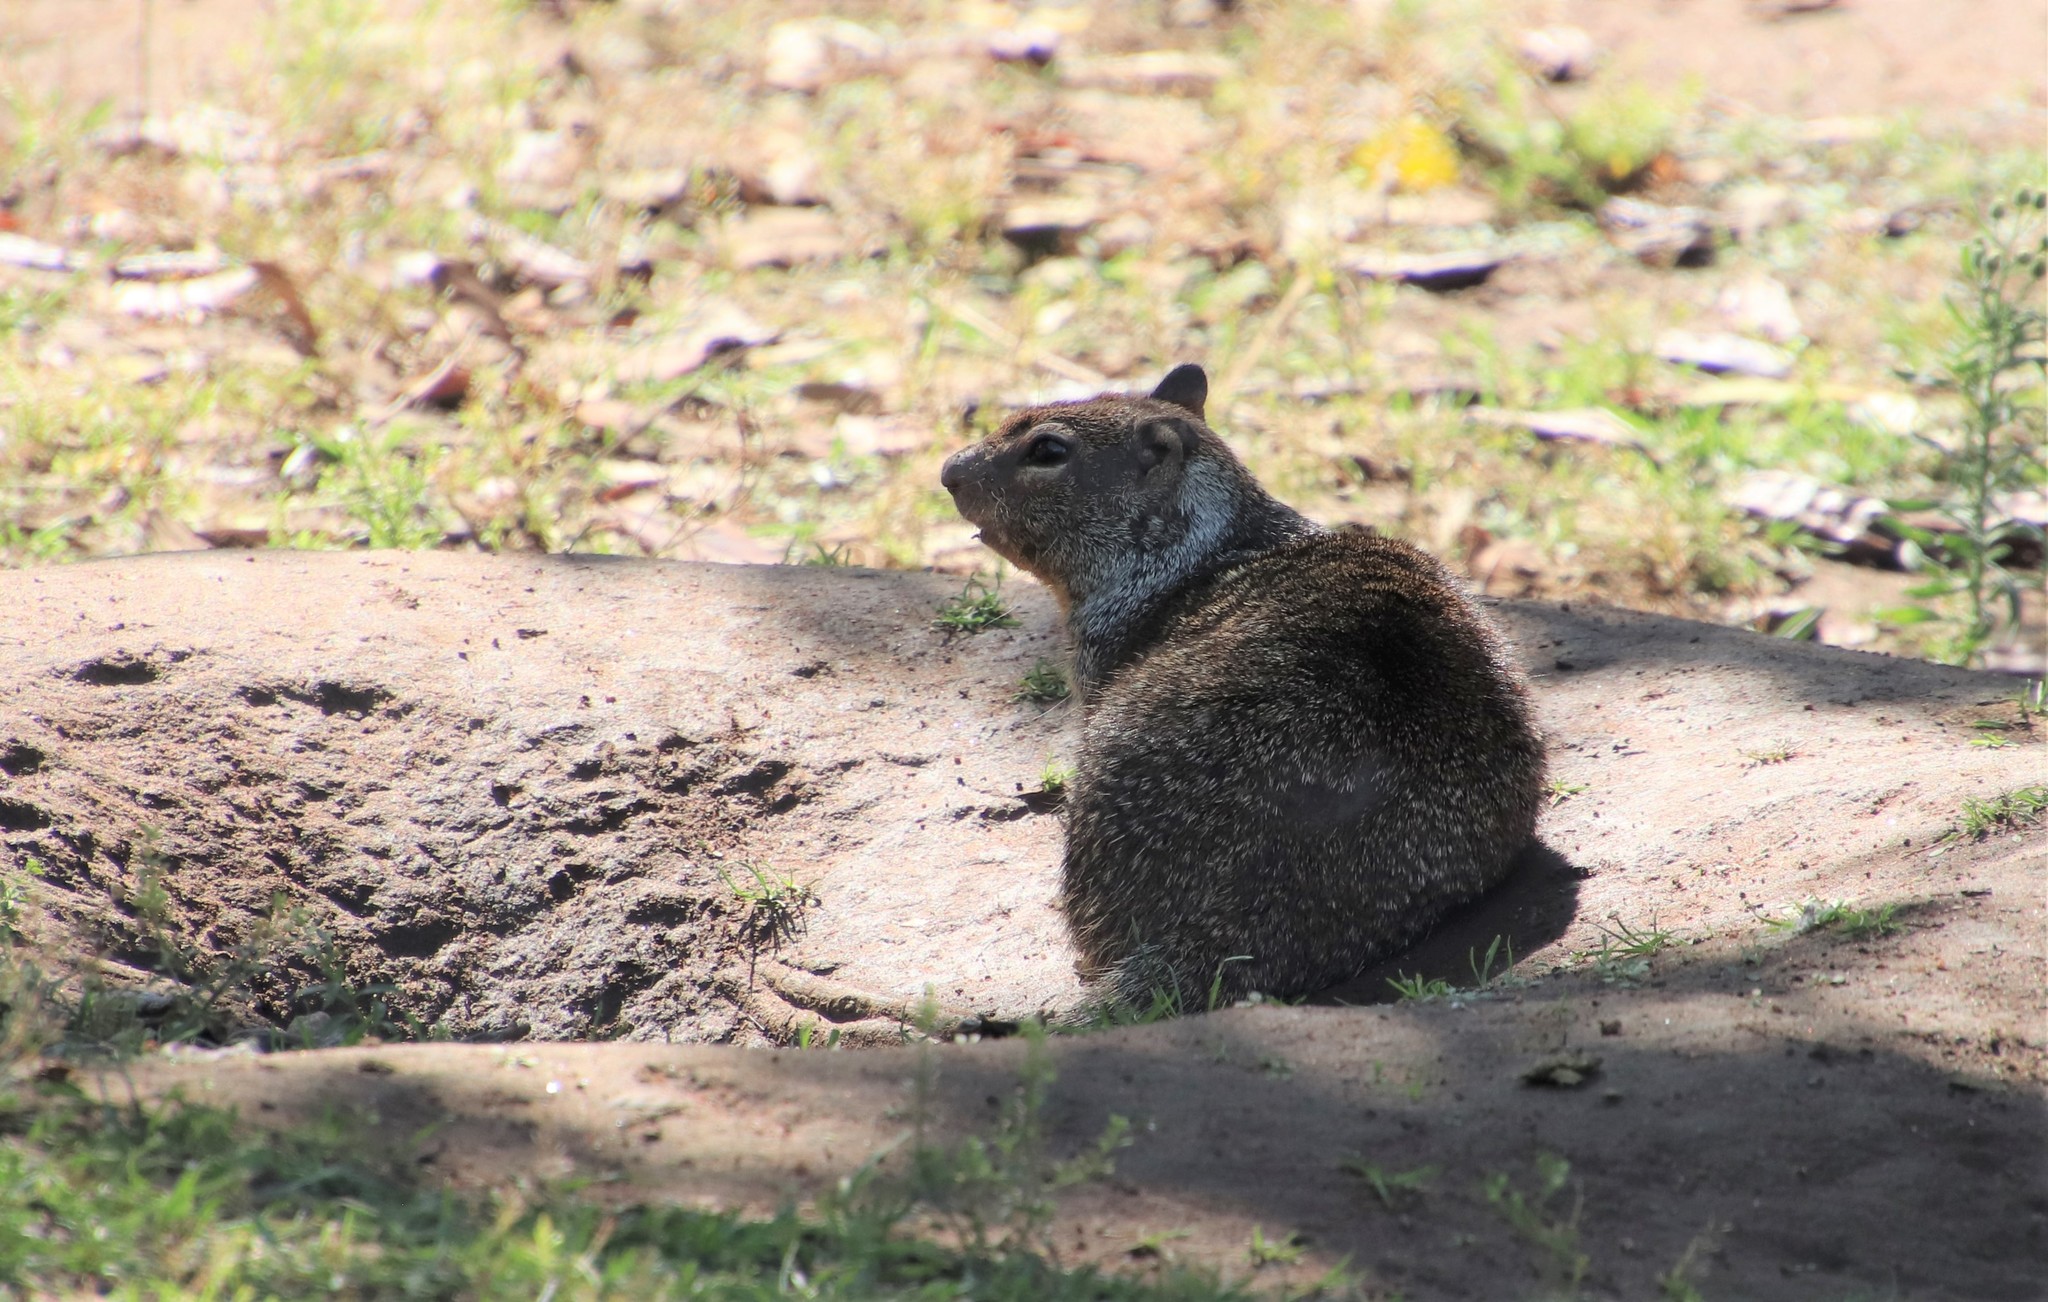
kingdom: Animalia
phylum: Chordata
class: Mammalia
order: Rodentia
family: Sciuridae
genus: Otospermophilus
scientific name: Otospermophilus beecheyi
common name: California ground squirrel
